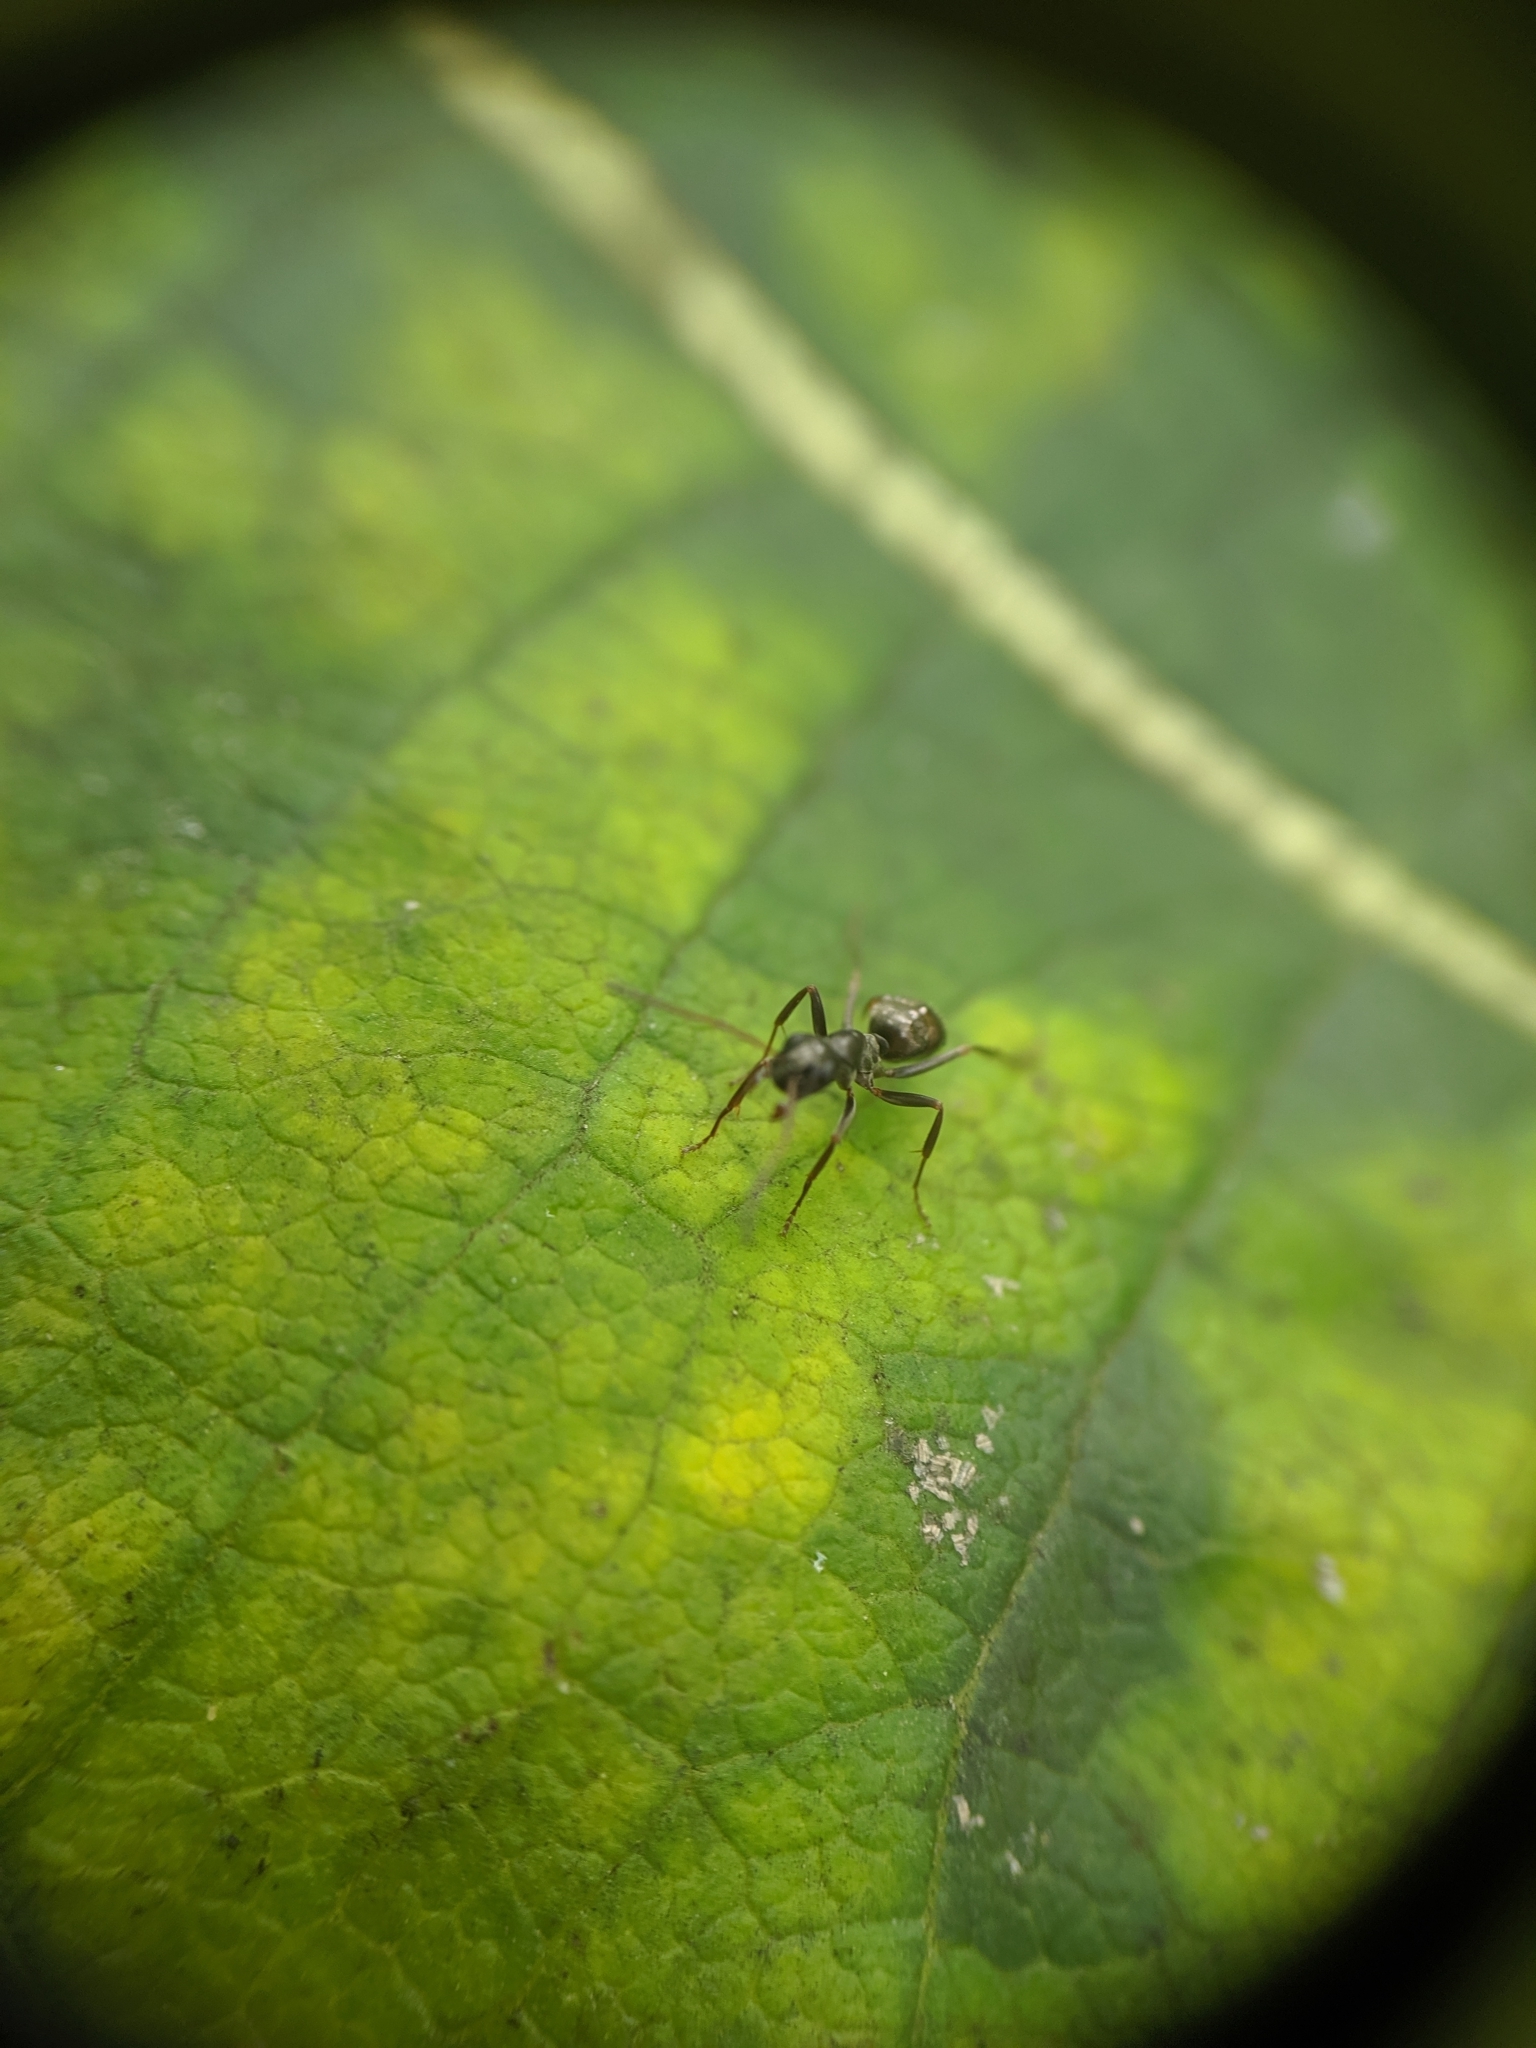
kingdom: Animalia
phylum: Arthropoda
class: Insecta
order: Hymenoptera
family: Formicidae
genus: Formica
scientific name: Formica
